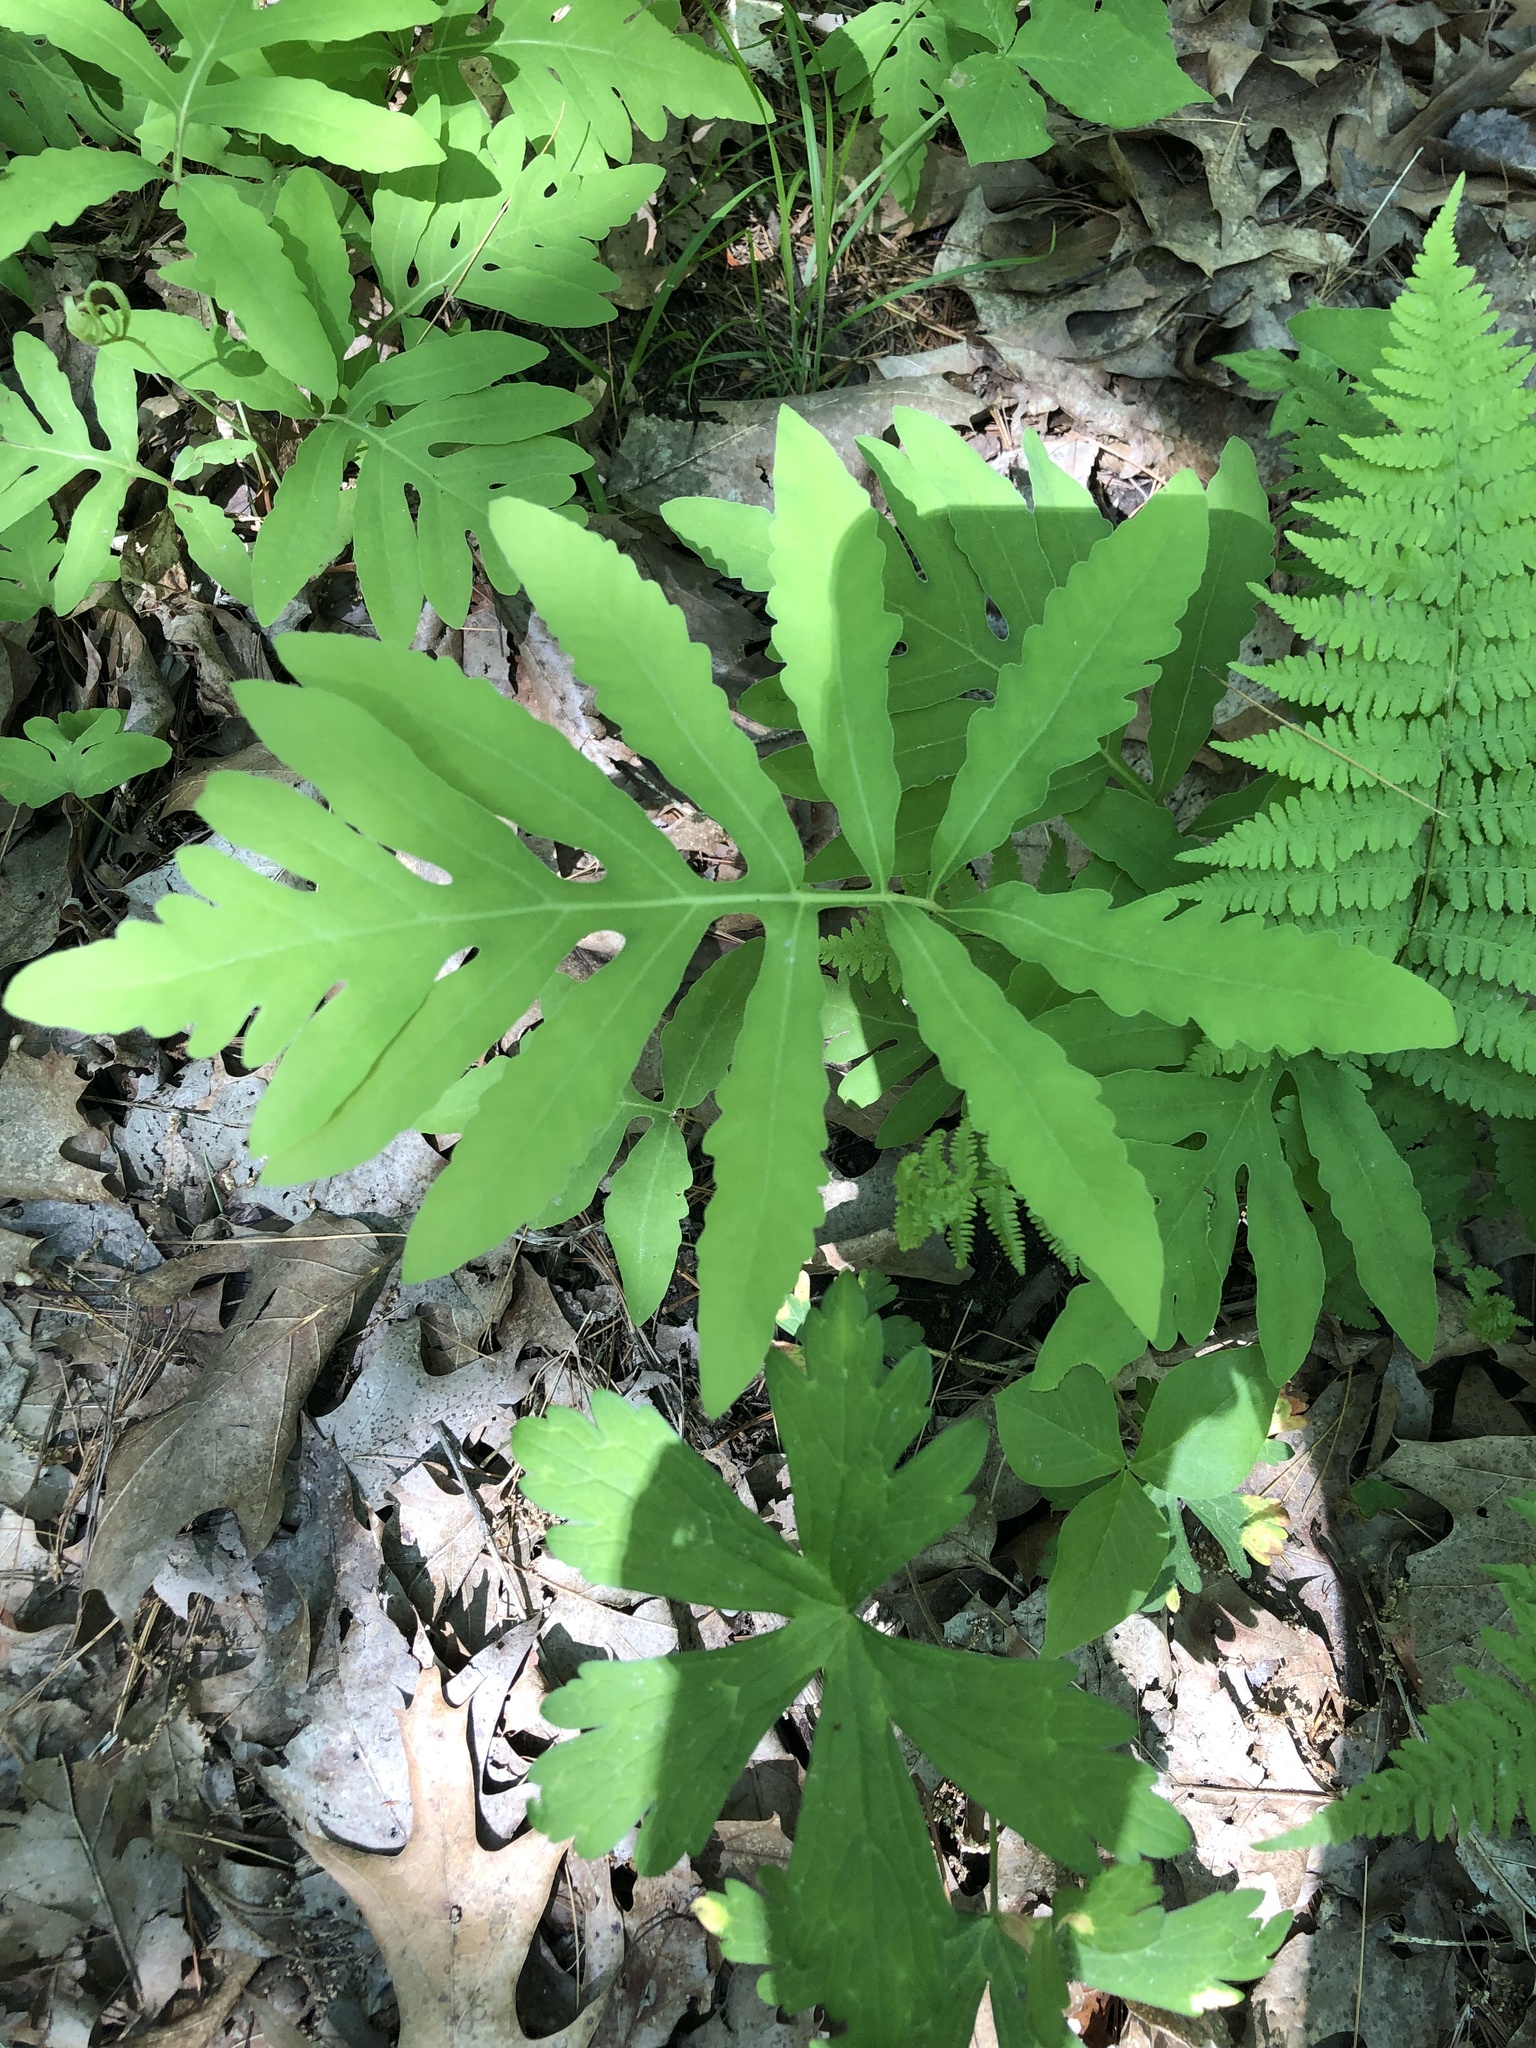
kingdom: Plantae
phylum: Tracheophyta
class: Polypodiopsida
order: Polypodiales
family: Onocleaceae
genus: Onoclea
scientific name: Onoclea sensibilis
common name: Sensitive fern
